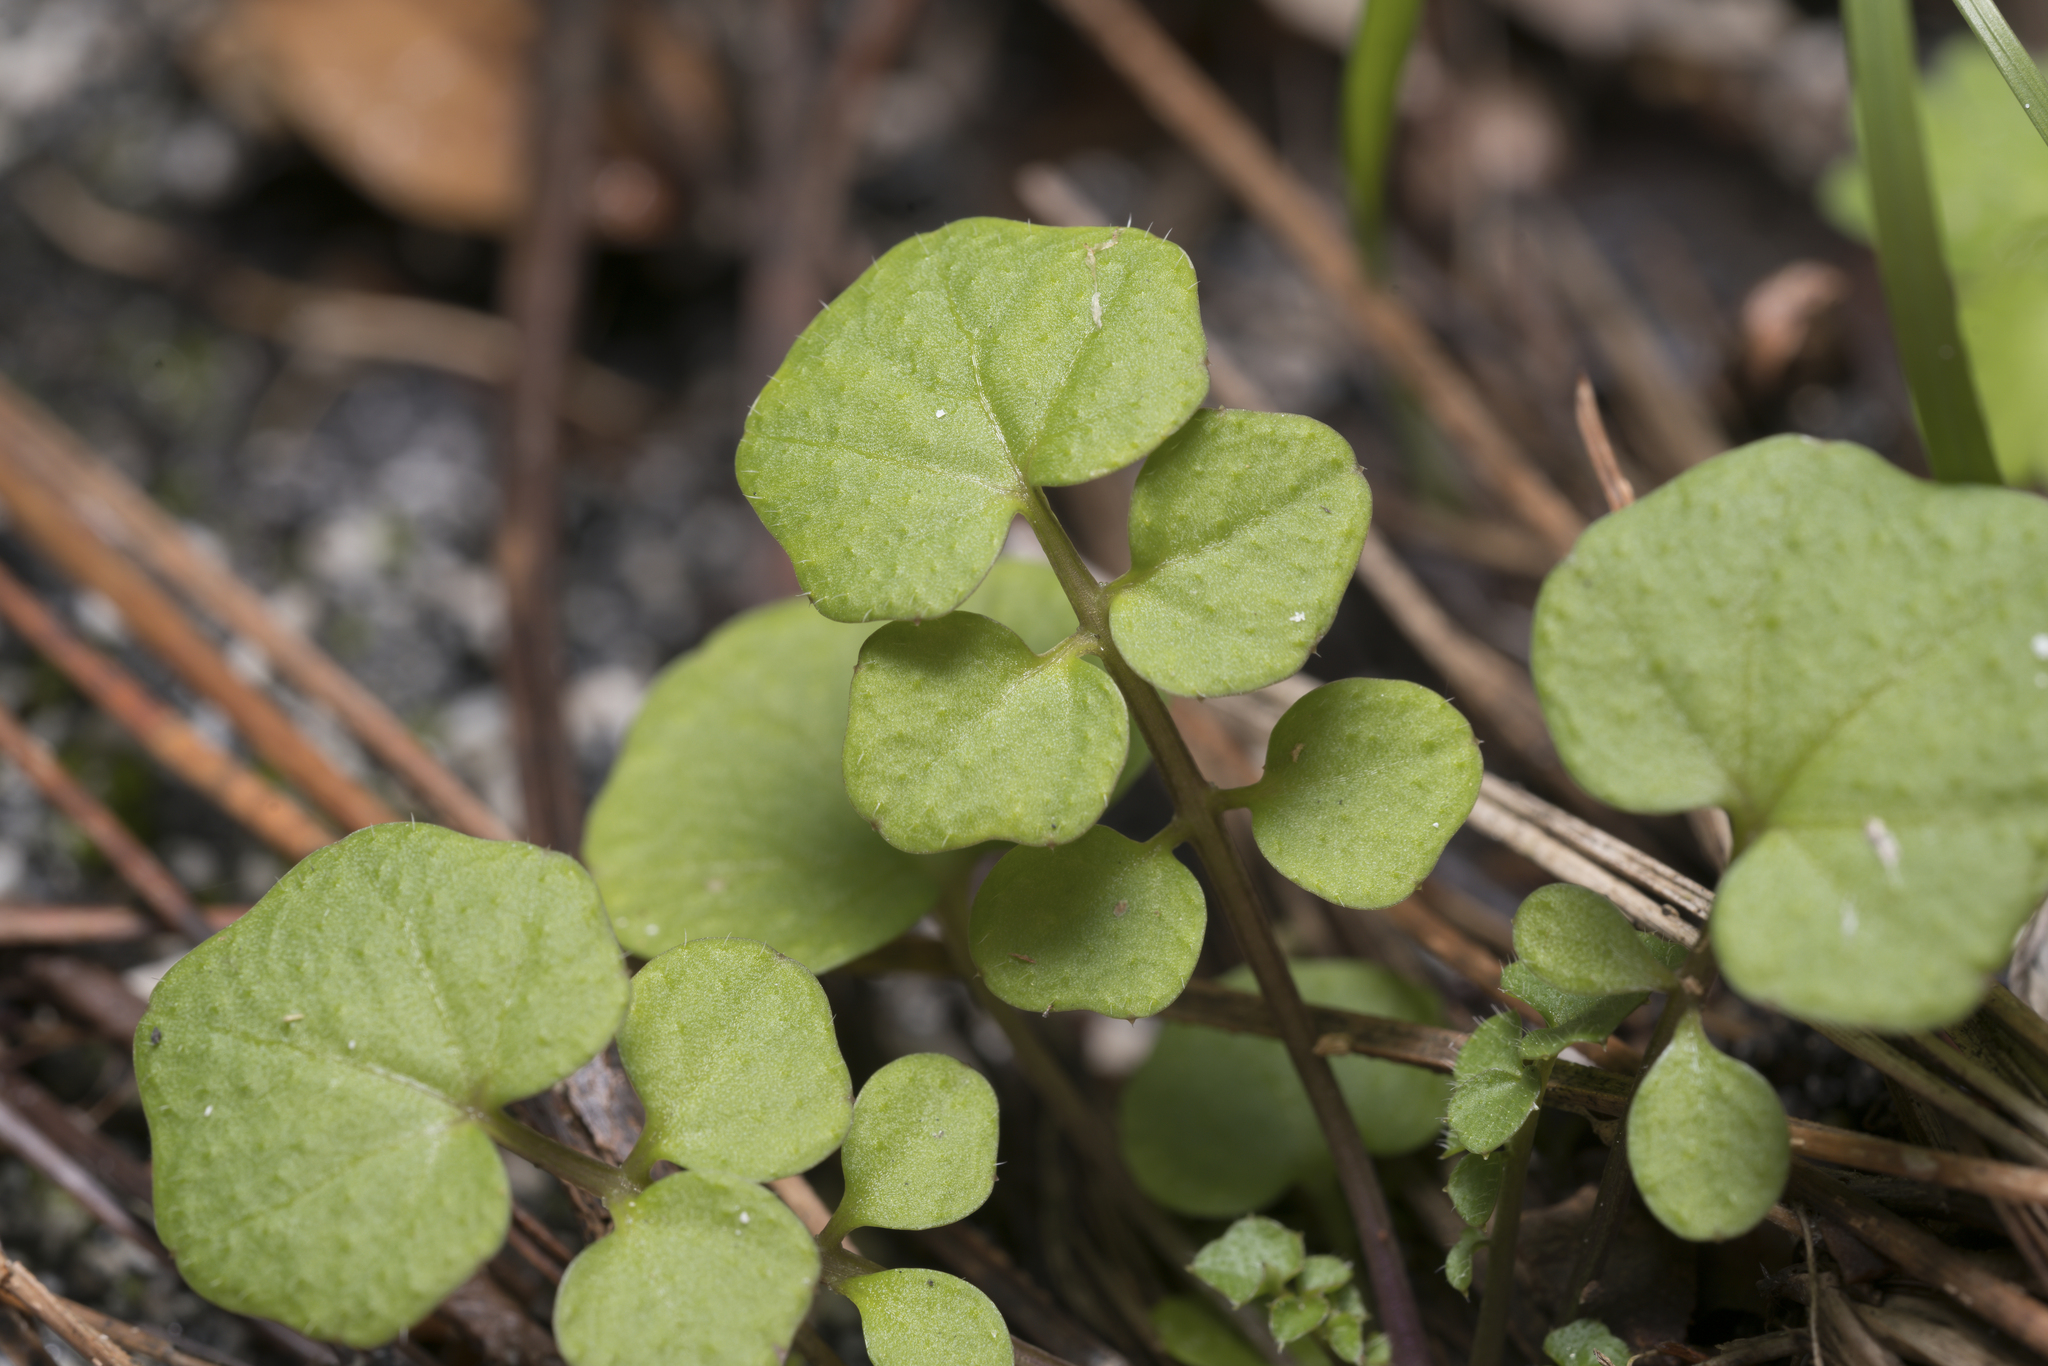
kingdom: Plantae
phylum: Tracheophyta
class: Magnoliopsida
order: Brassicales
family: Brassicaceae
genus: Cardamine
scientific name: Cardamine hirsuta
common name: Hairy bittercress
